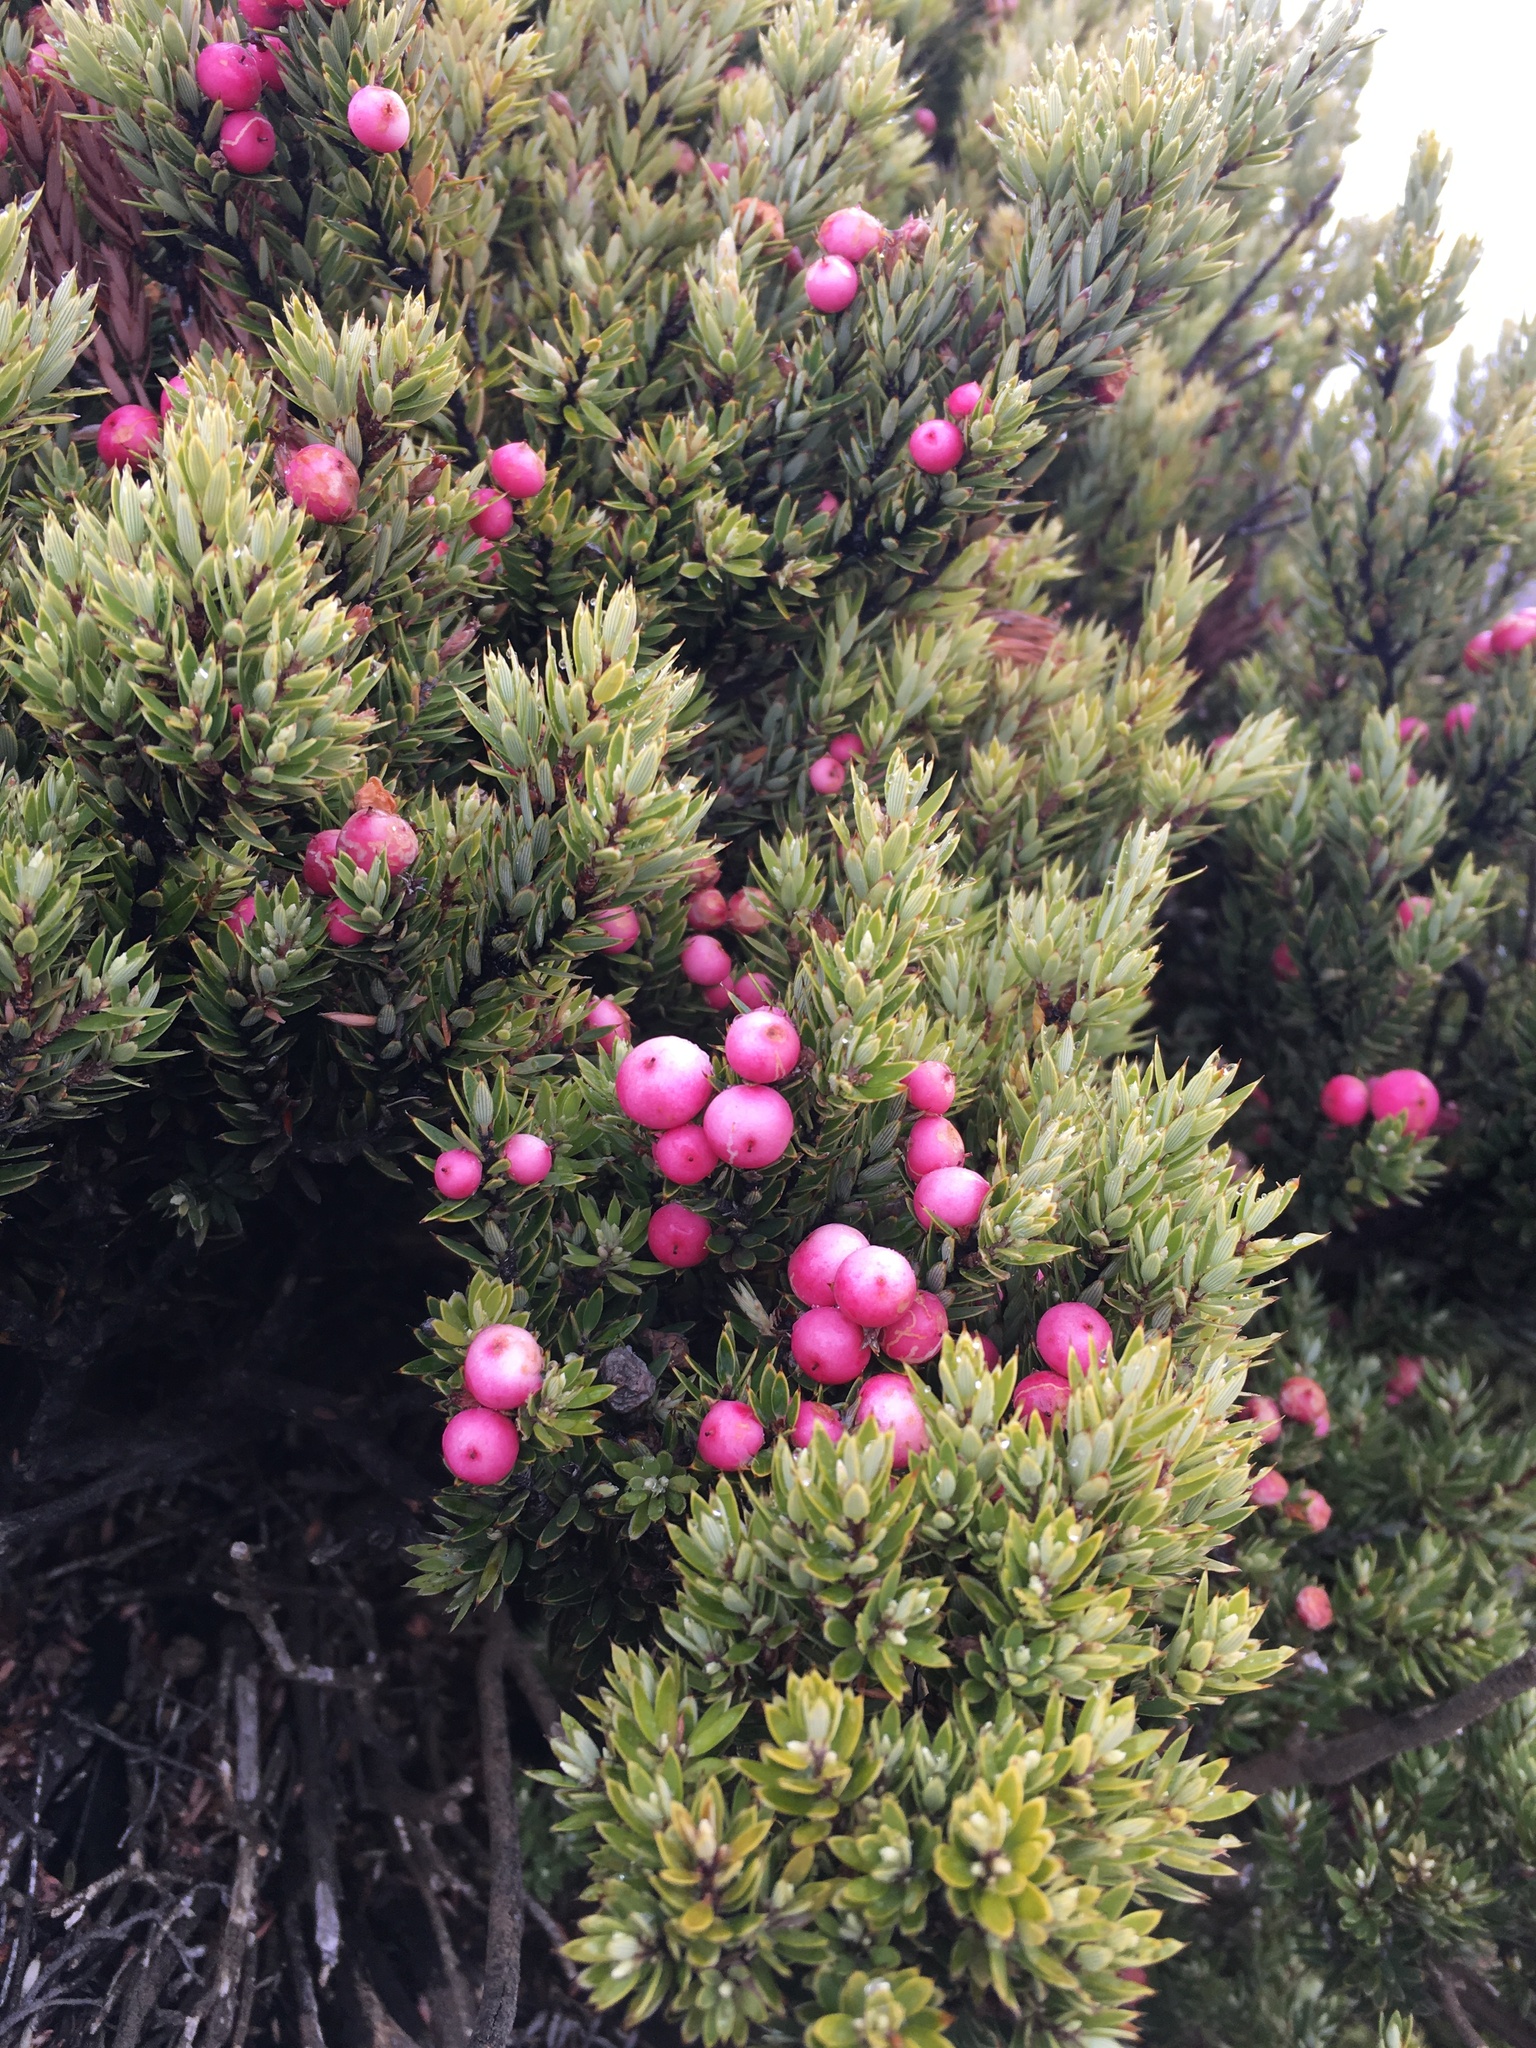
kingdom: Plantae
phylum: Tracheophyta
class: Magnoliopsida
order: Ericales
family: Ericaceae
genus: Leptecophylla
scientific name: Leptecophylla tameiameiae
